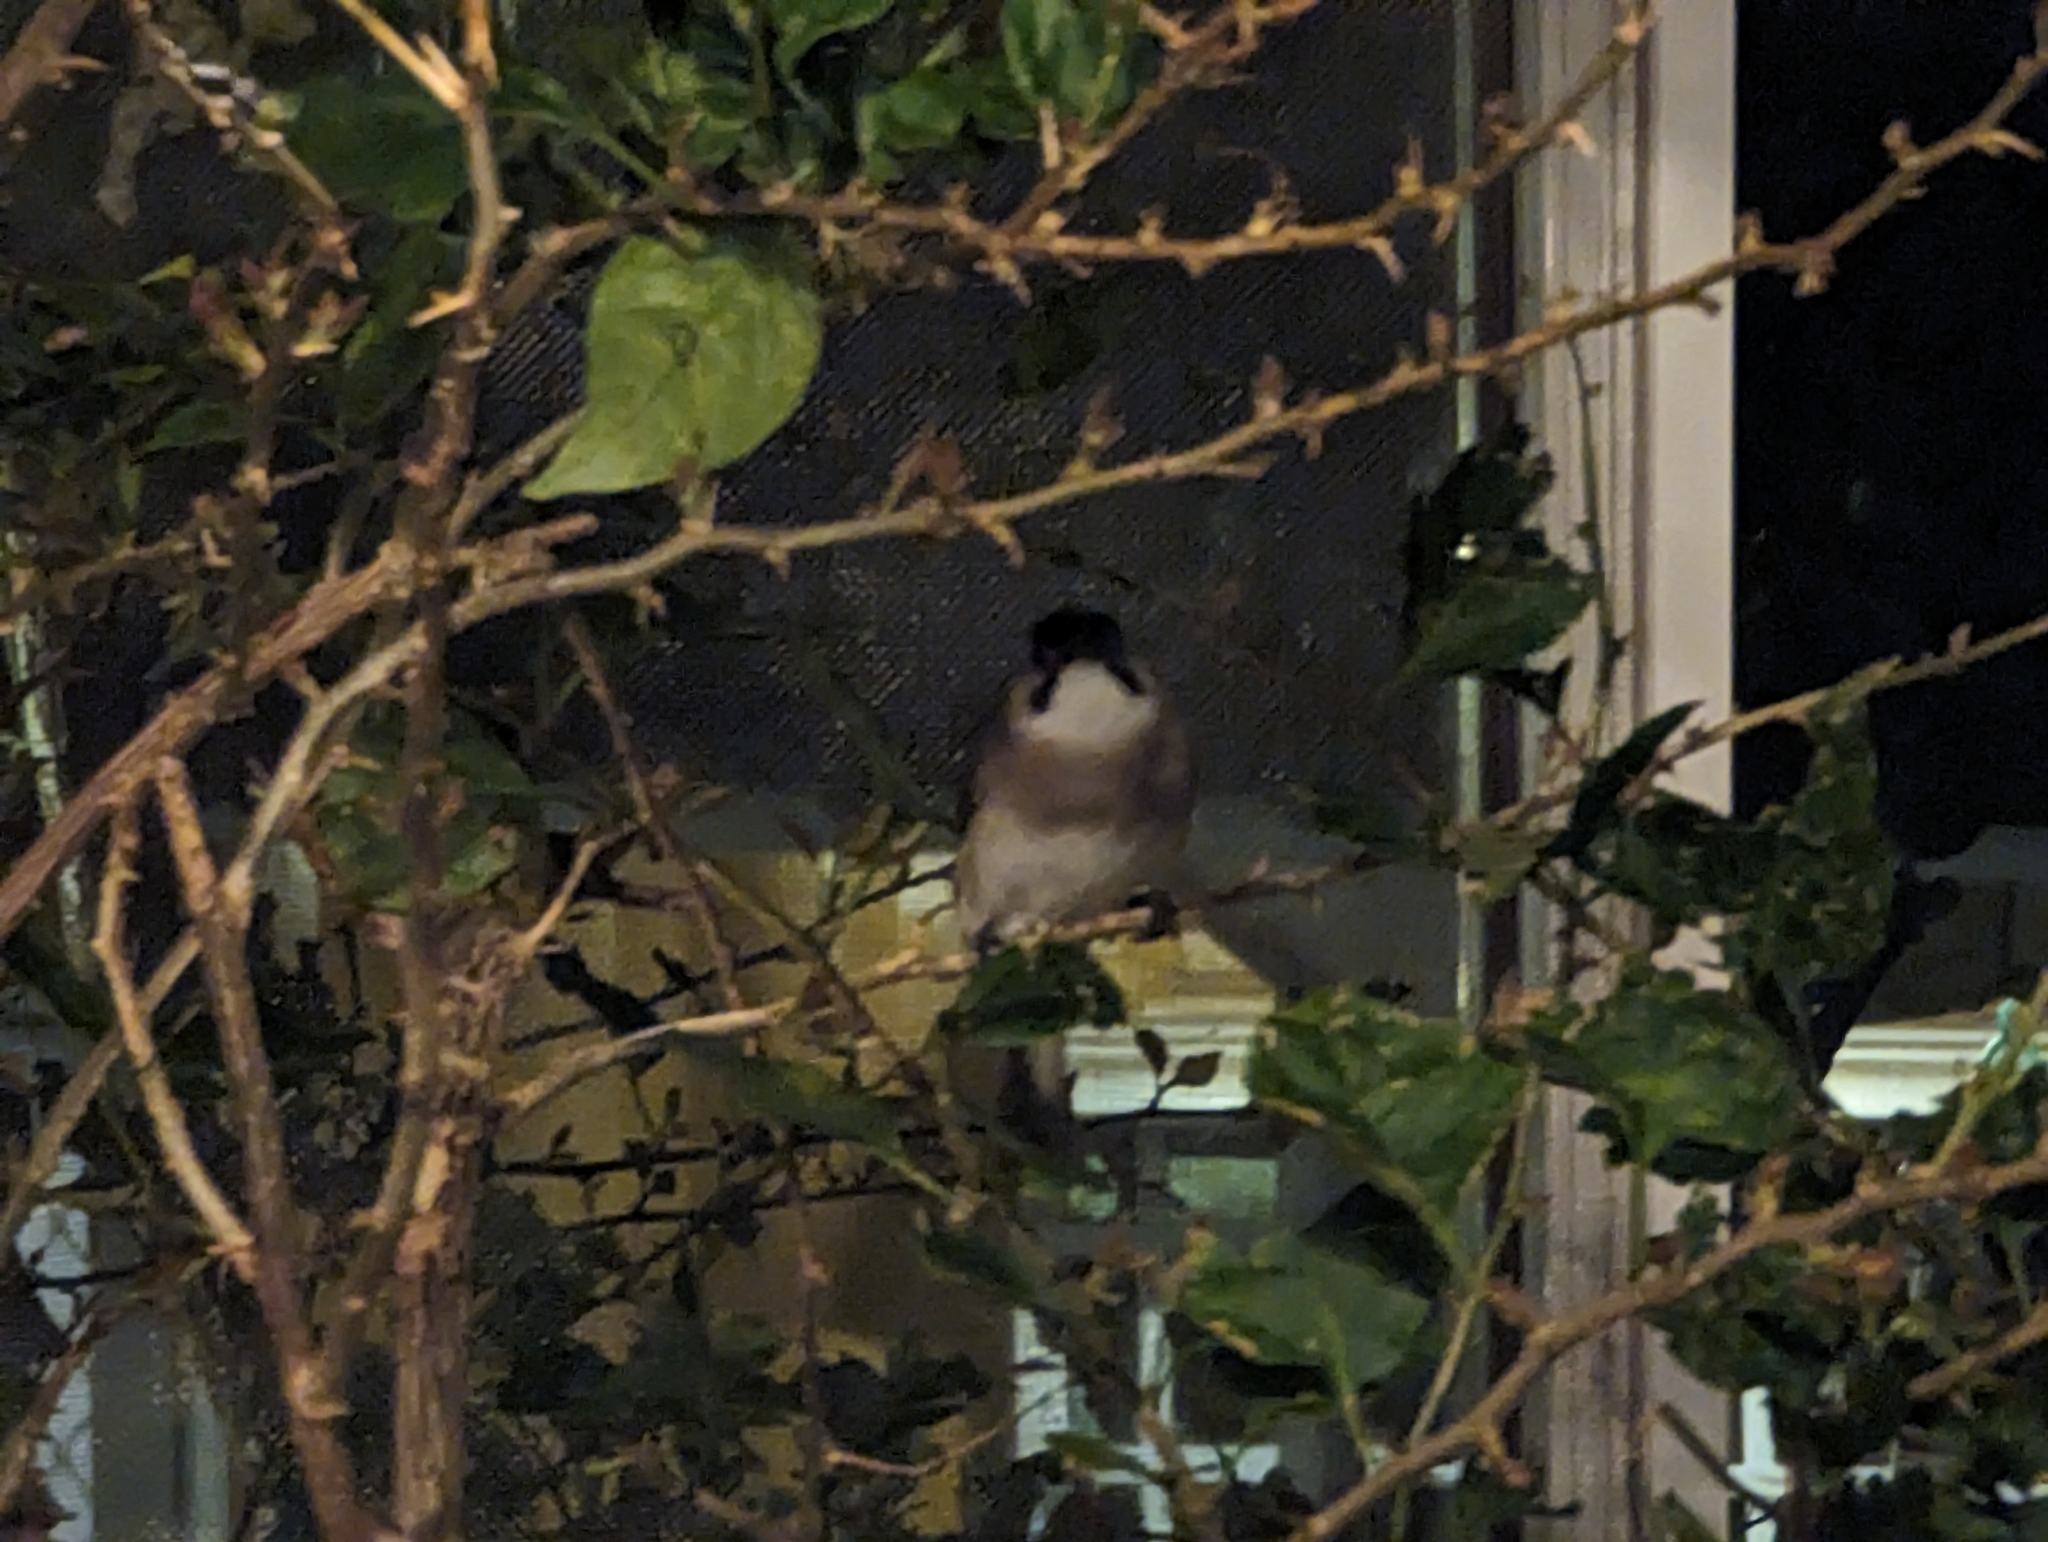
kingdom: Animalia
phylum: Chordata
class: Aves
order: Passeriformes
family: Pycnonotidae
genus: Pycnonotus
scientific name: Pycnonotus taivanus
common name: Styan's bulbul
